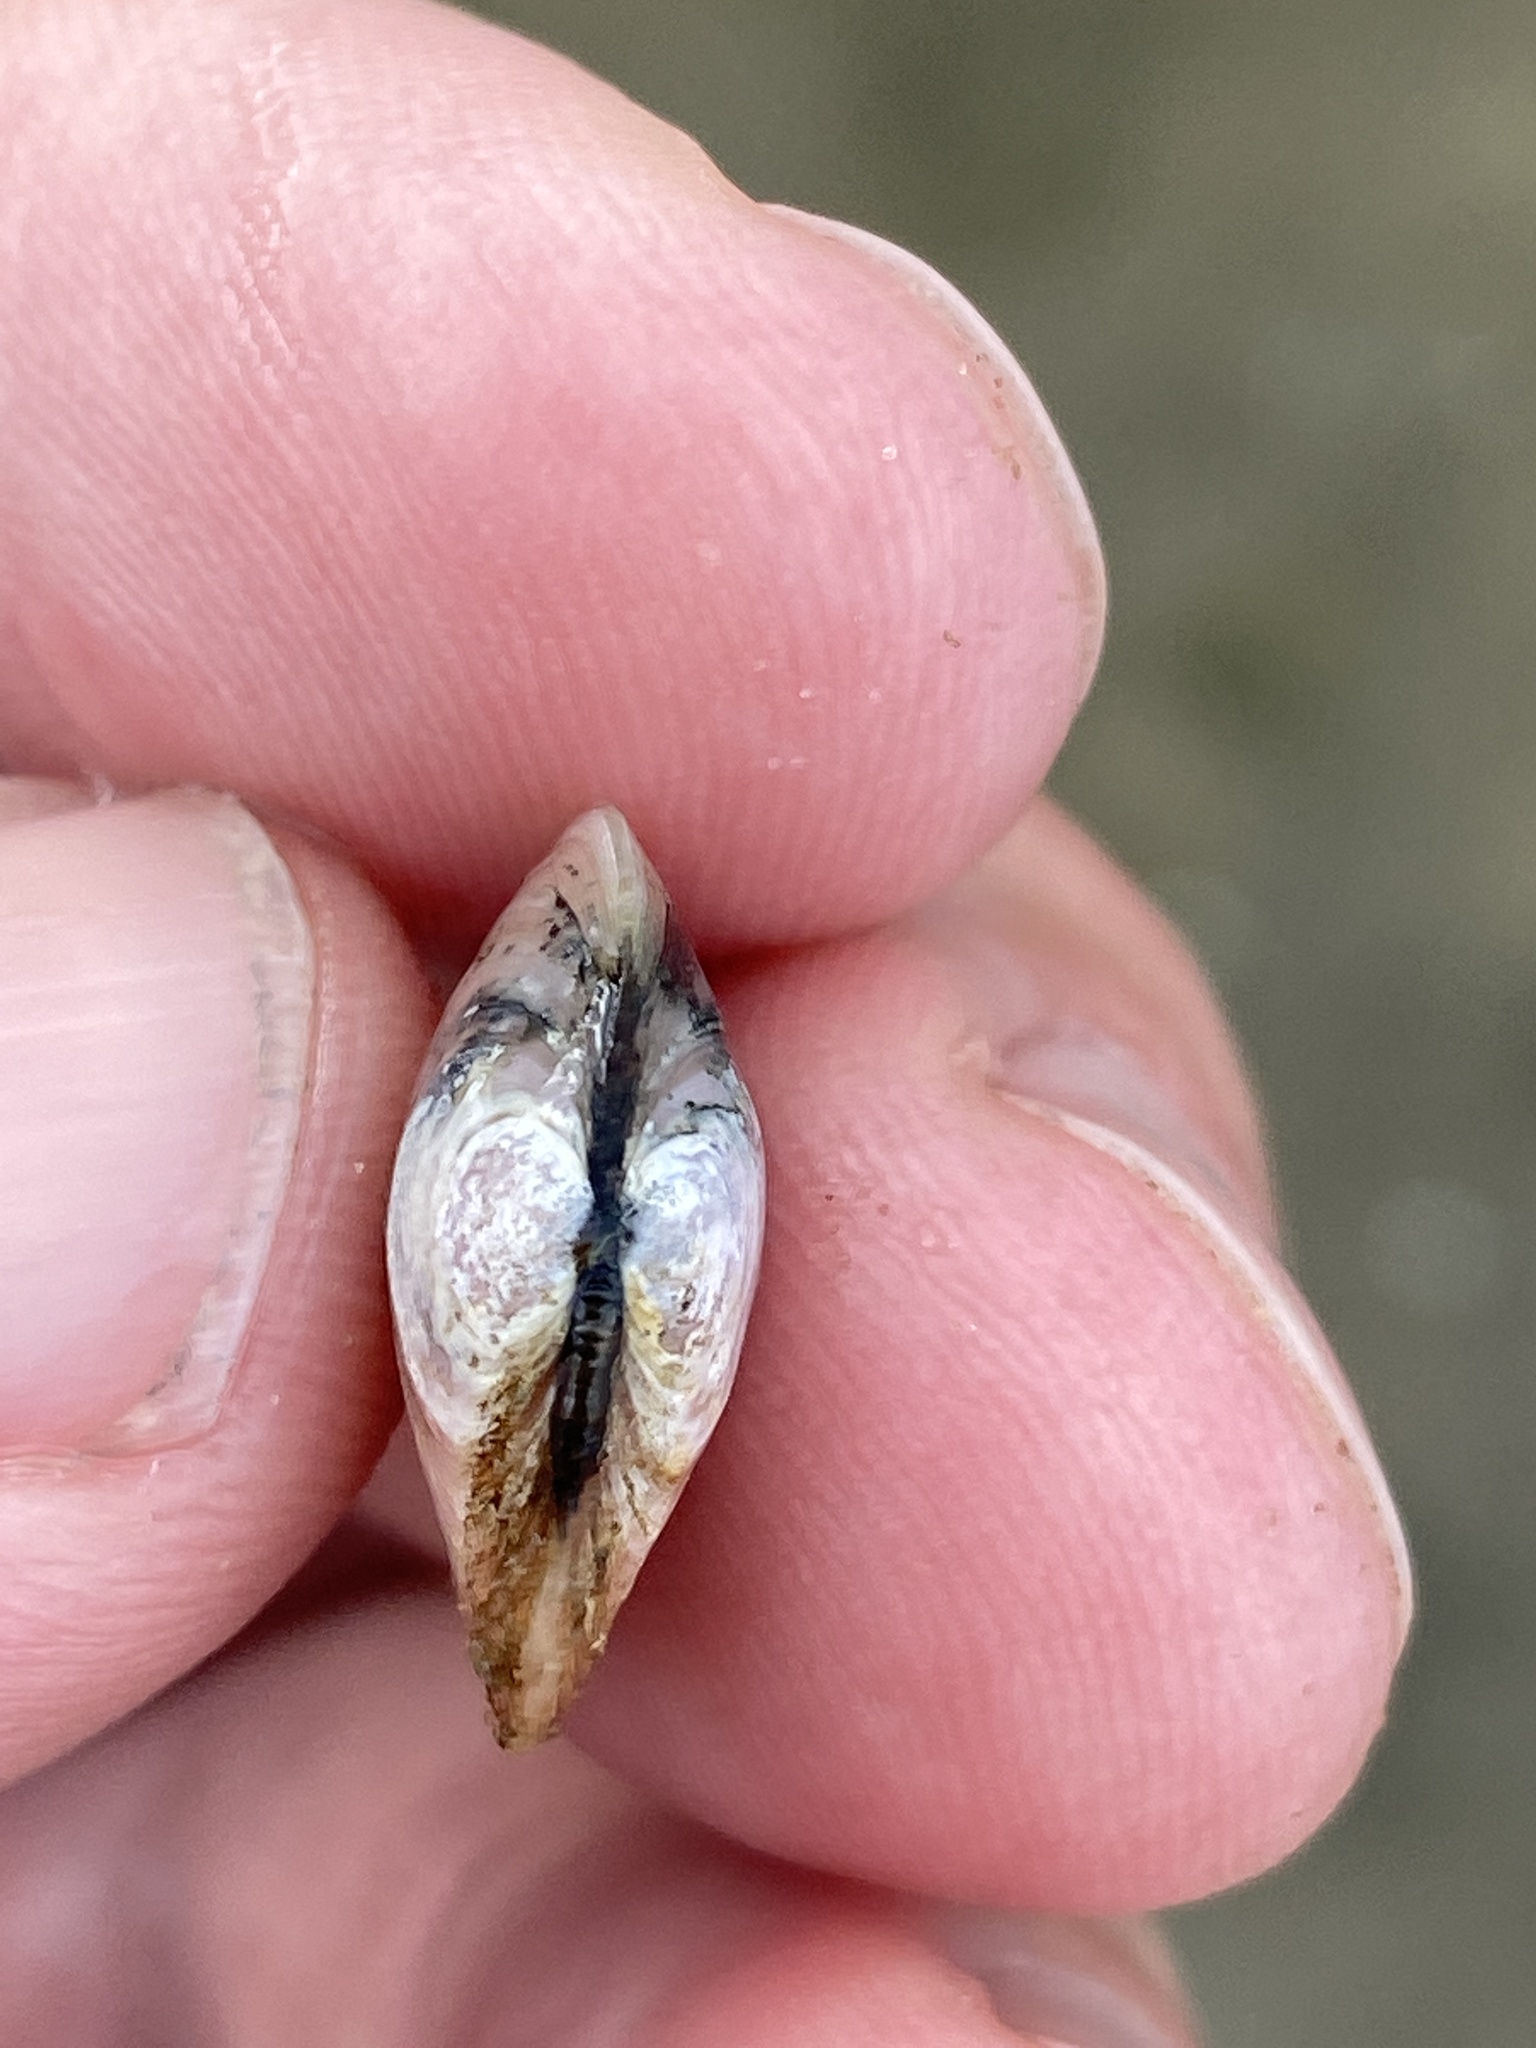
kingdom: Animalia
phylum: Mollusca
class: Bivalvia
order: Cardiida
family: Tellinidae
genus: Macoma
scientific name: Macoma balthica
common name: Baltic tellin
